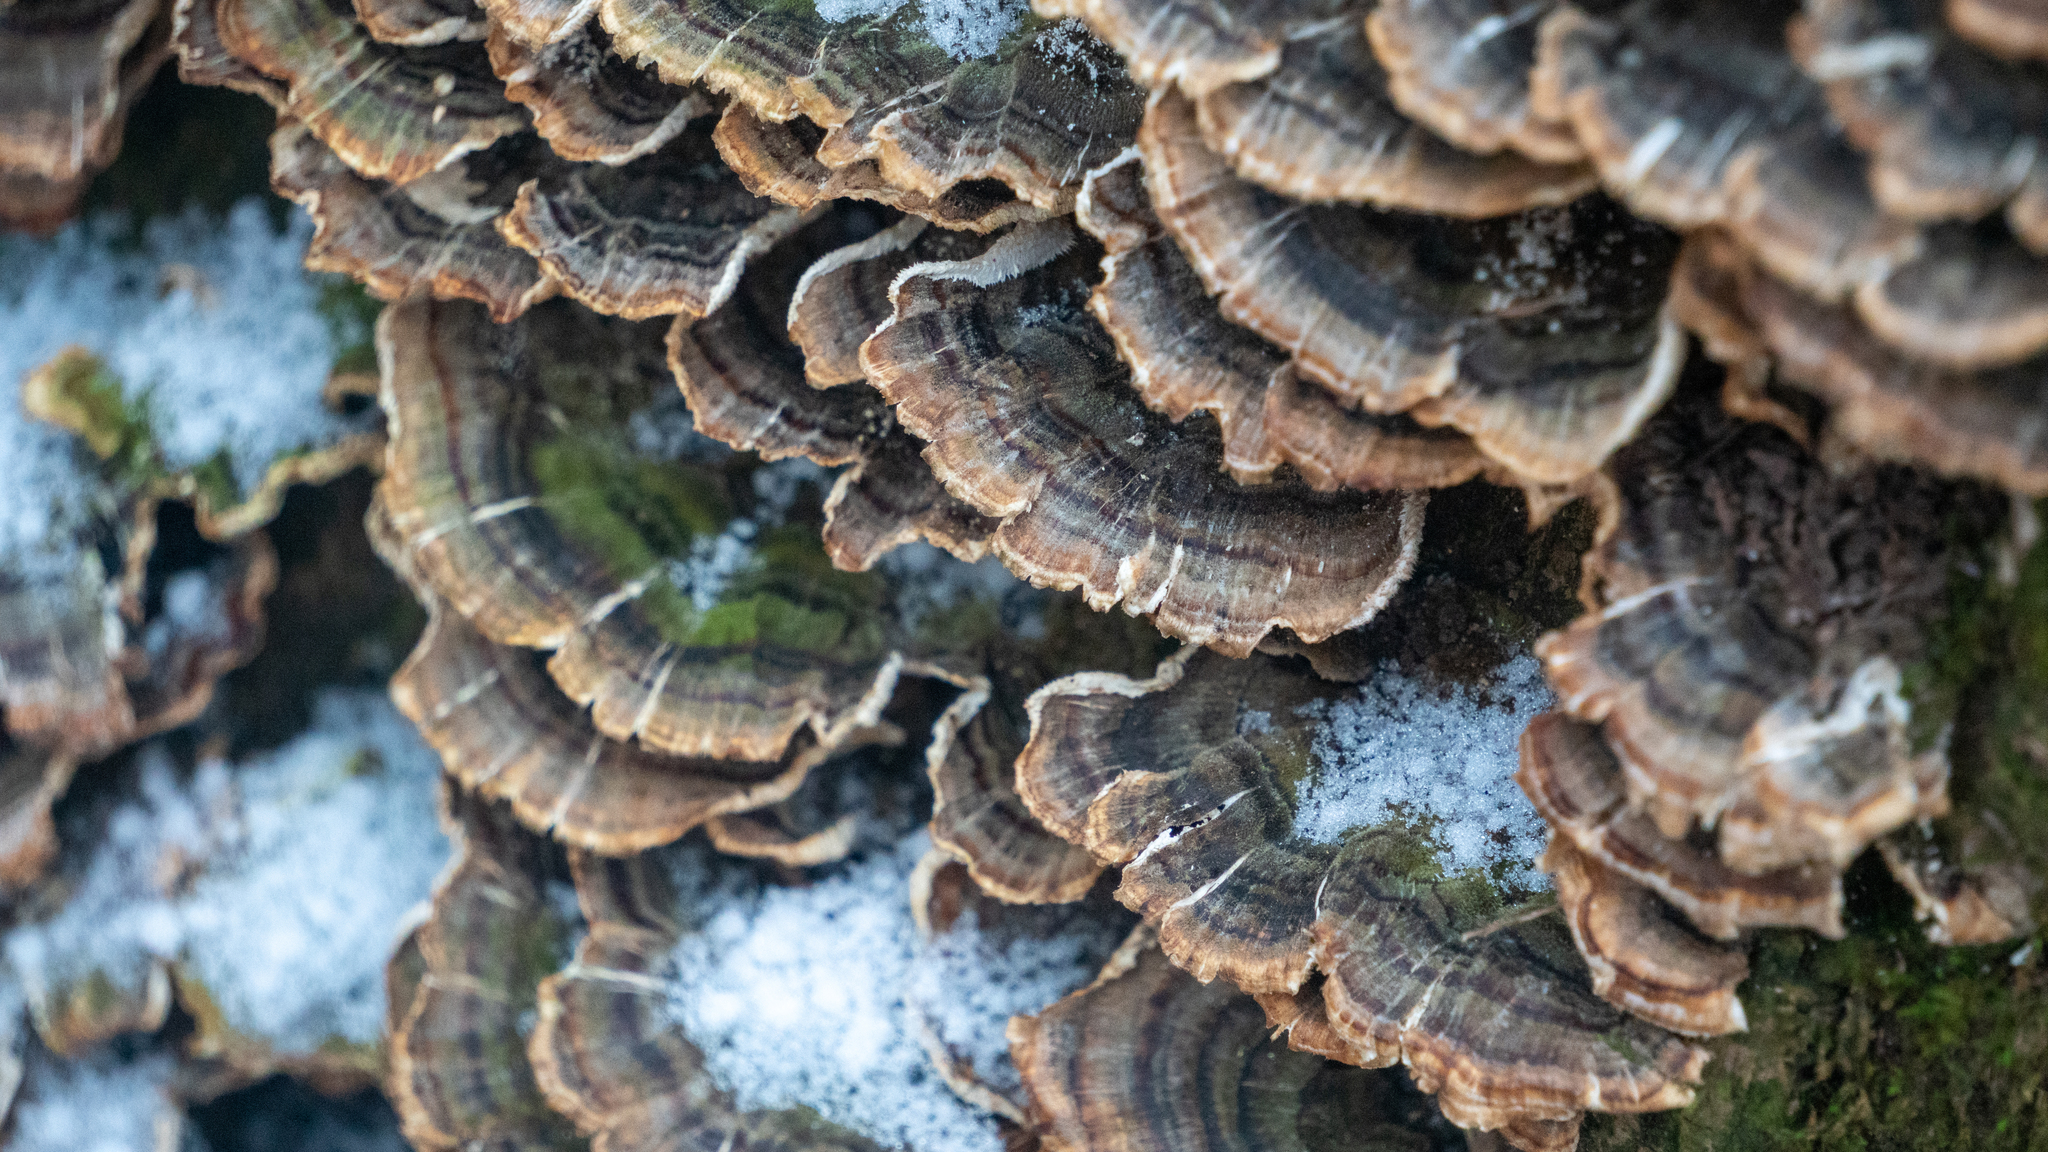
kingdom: Fungi
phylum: Basidiomycota
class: Agaricomycetes
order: Polyporales
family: Polyporaceae
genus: Trametes
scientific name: Trametes versicolor
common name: Turkeytail
